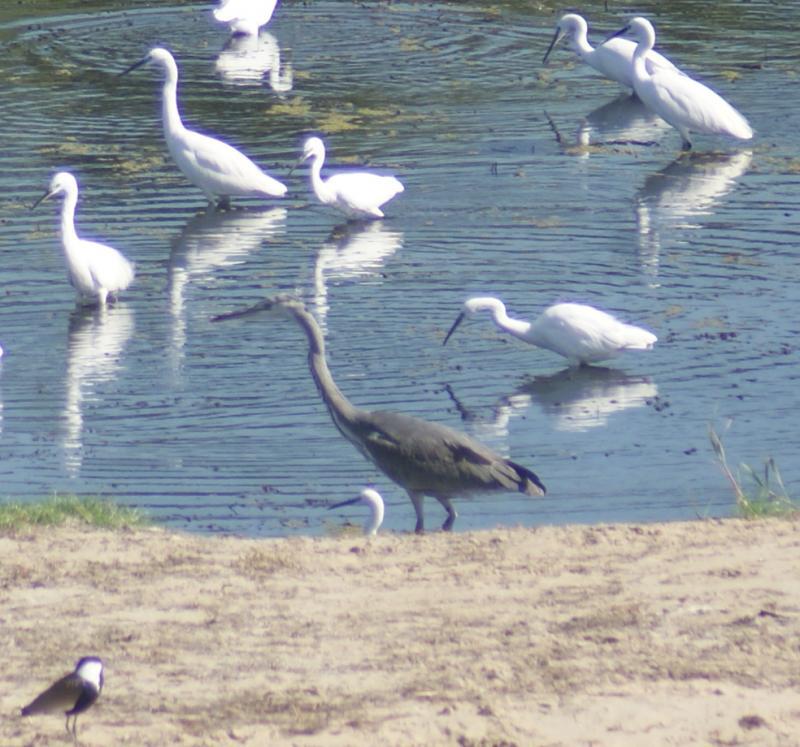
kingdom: Animalia
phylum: Chordata
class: Aves
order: Pelecaniformes
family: Ardeidae
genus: Ardea
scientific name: Ardea cinerea
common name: Grey heron
